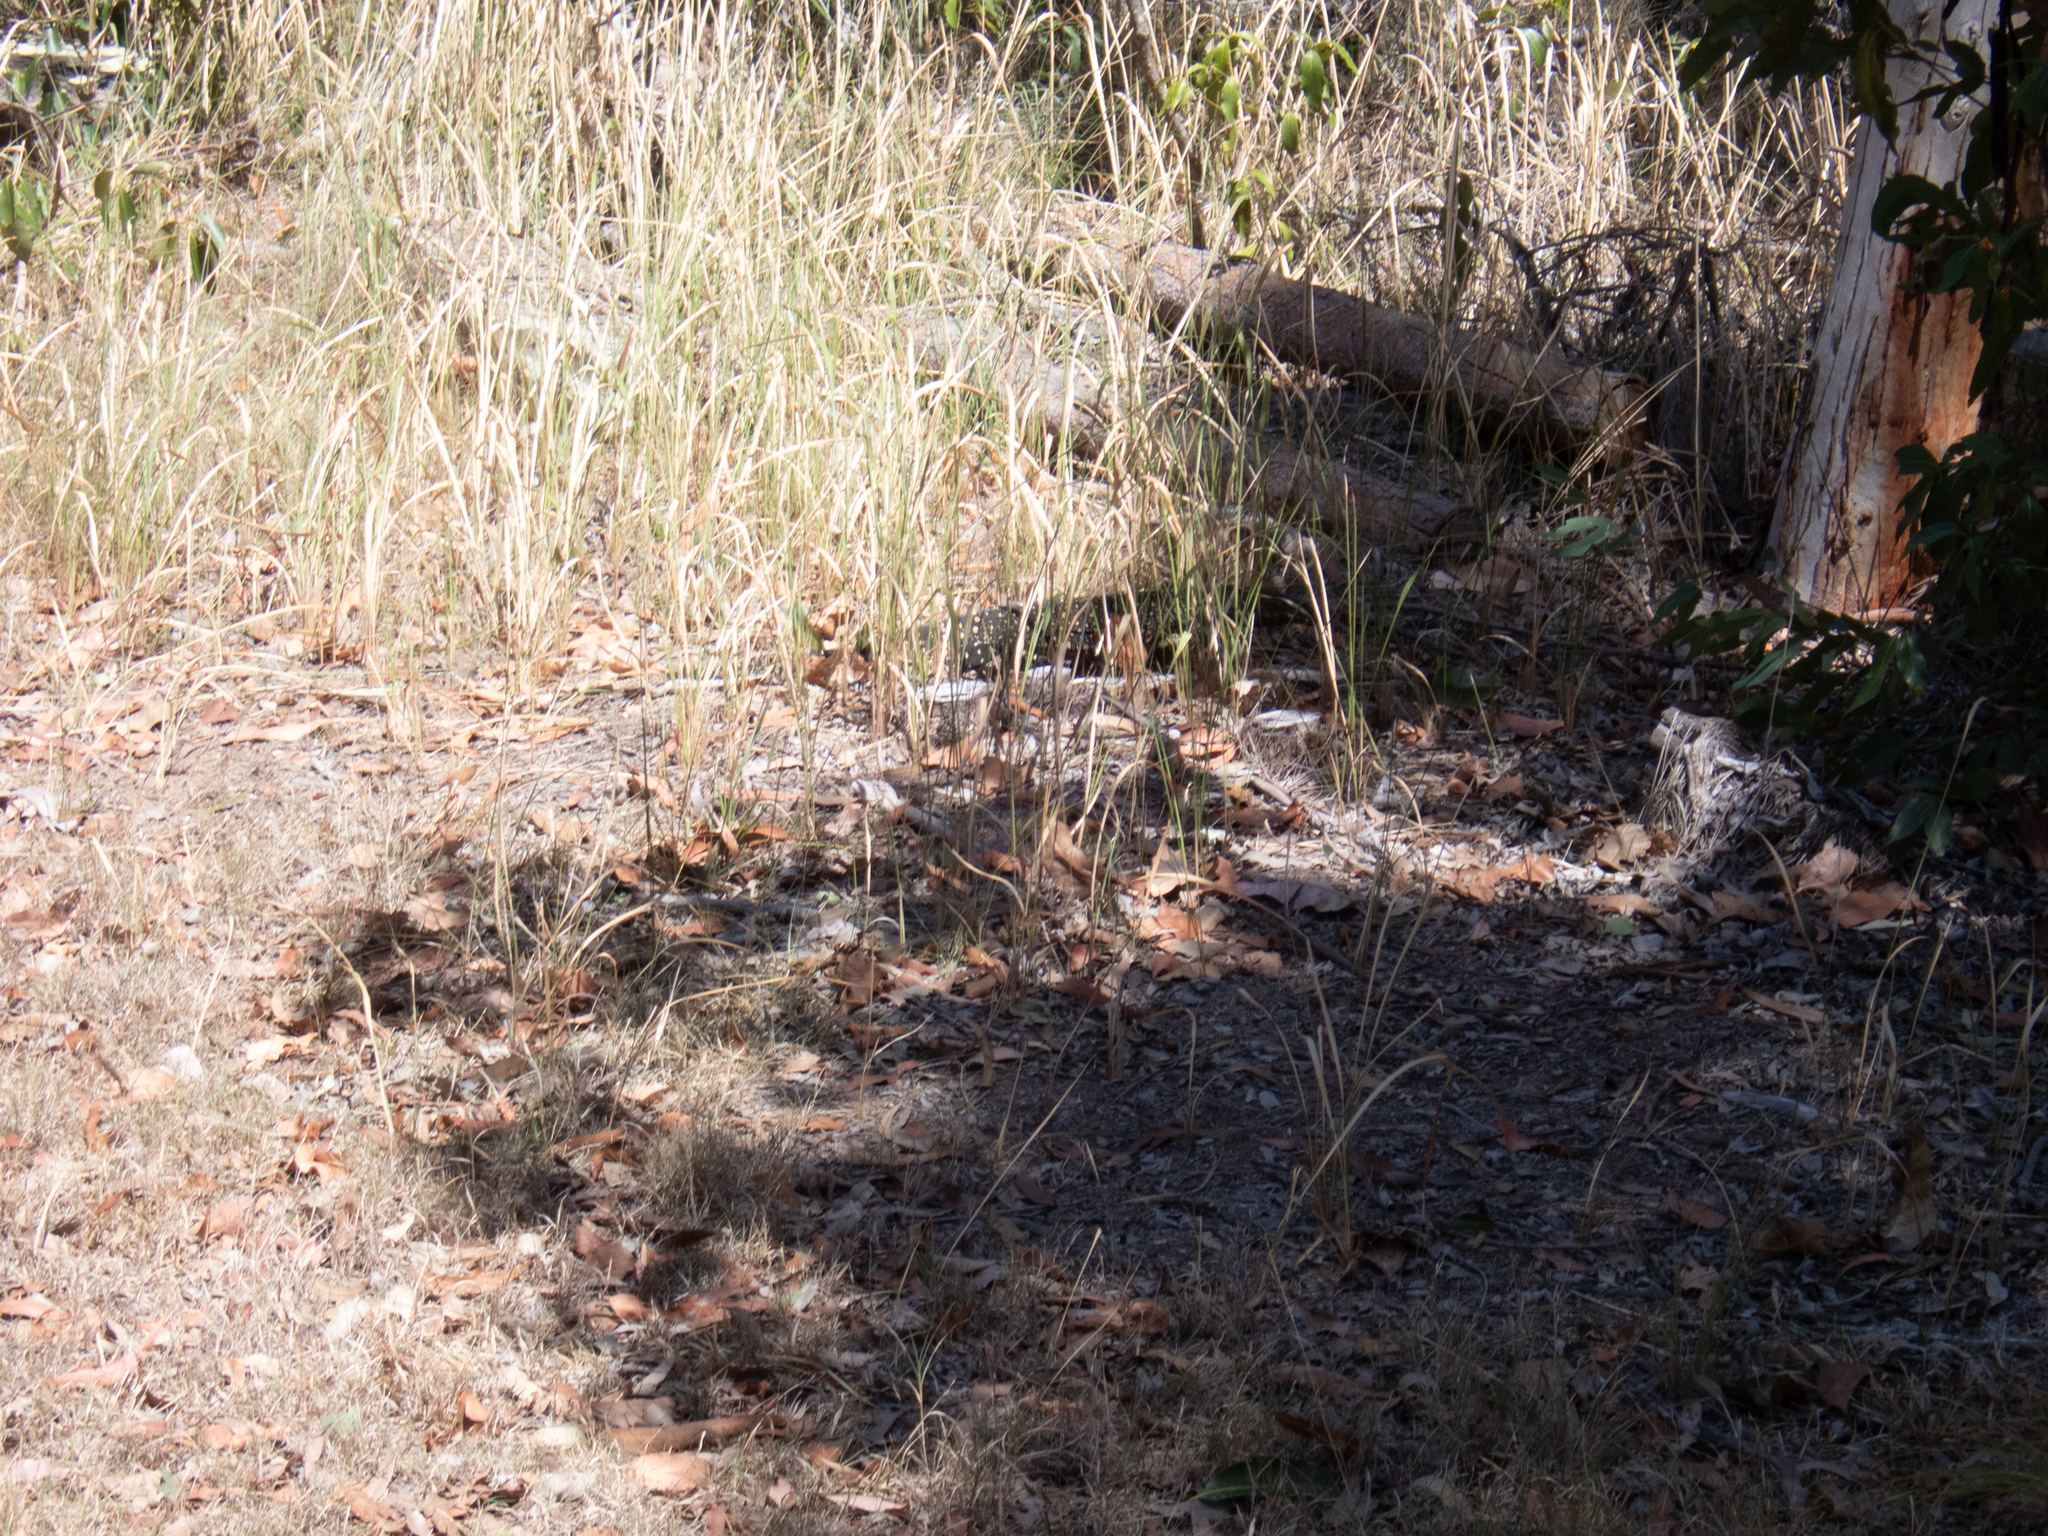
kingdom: Animalia
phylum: Chordata
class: Squamata
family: Varanidae
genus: Varanus
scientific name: Varanus varius
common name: Lace monitor
